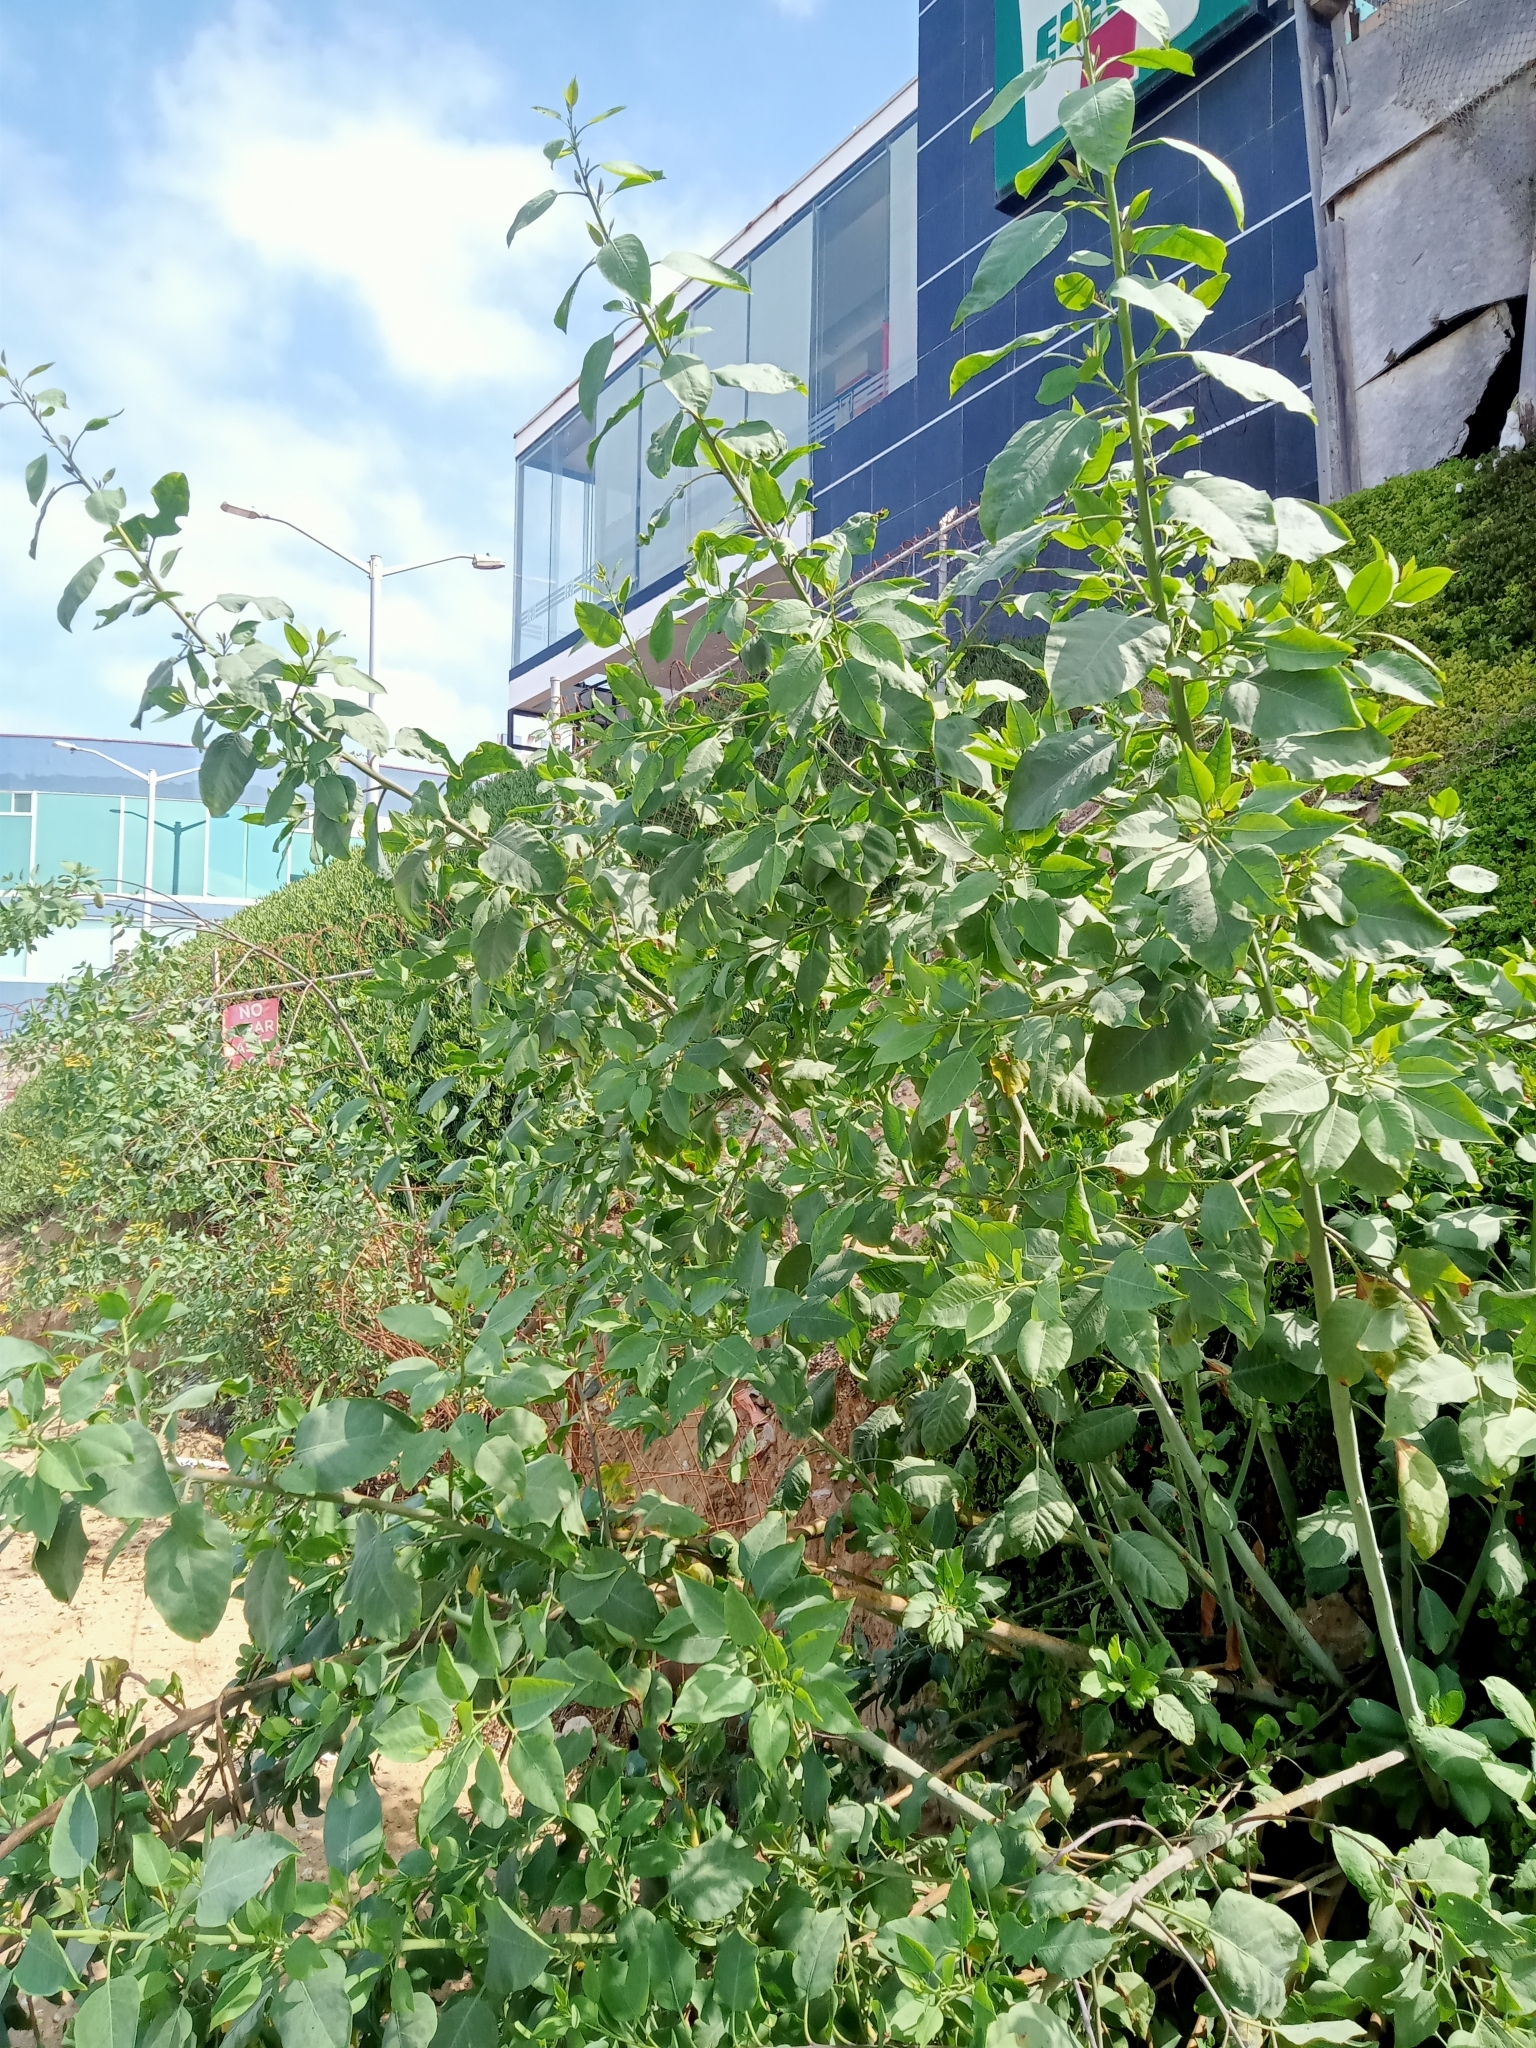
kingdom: Plantae
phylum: Tracheophyta
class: Magnoliopsida
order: Solanales
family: Solanaceae
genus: Nicotiana
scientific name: Nicotiana glauca
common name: Tree tobacco
